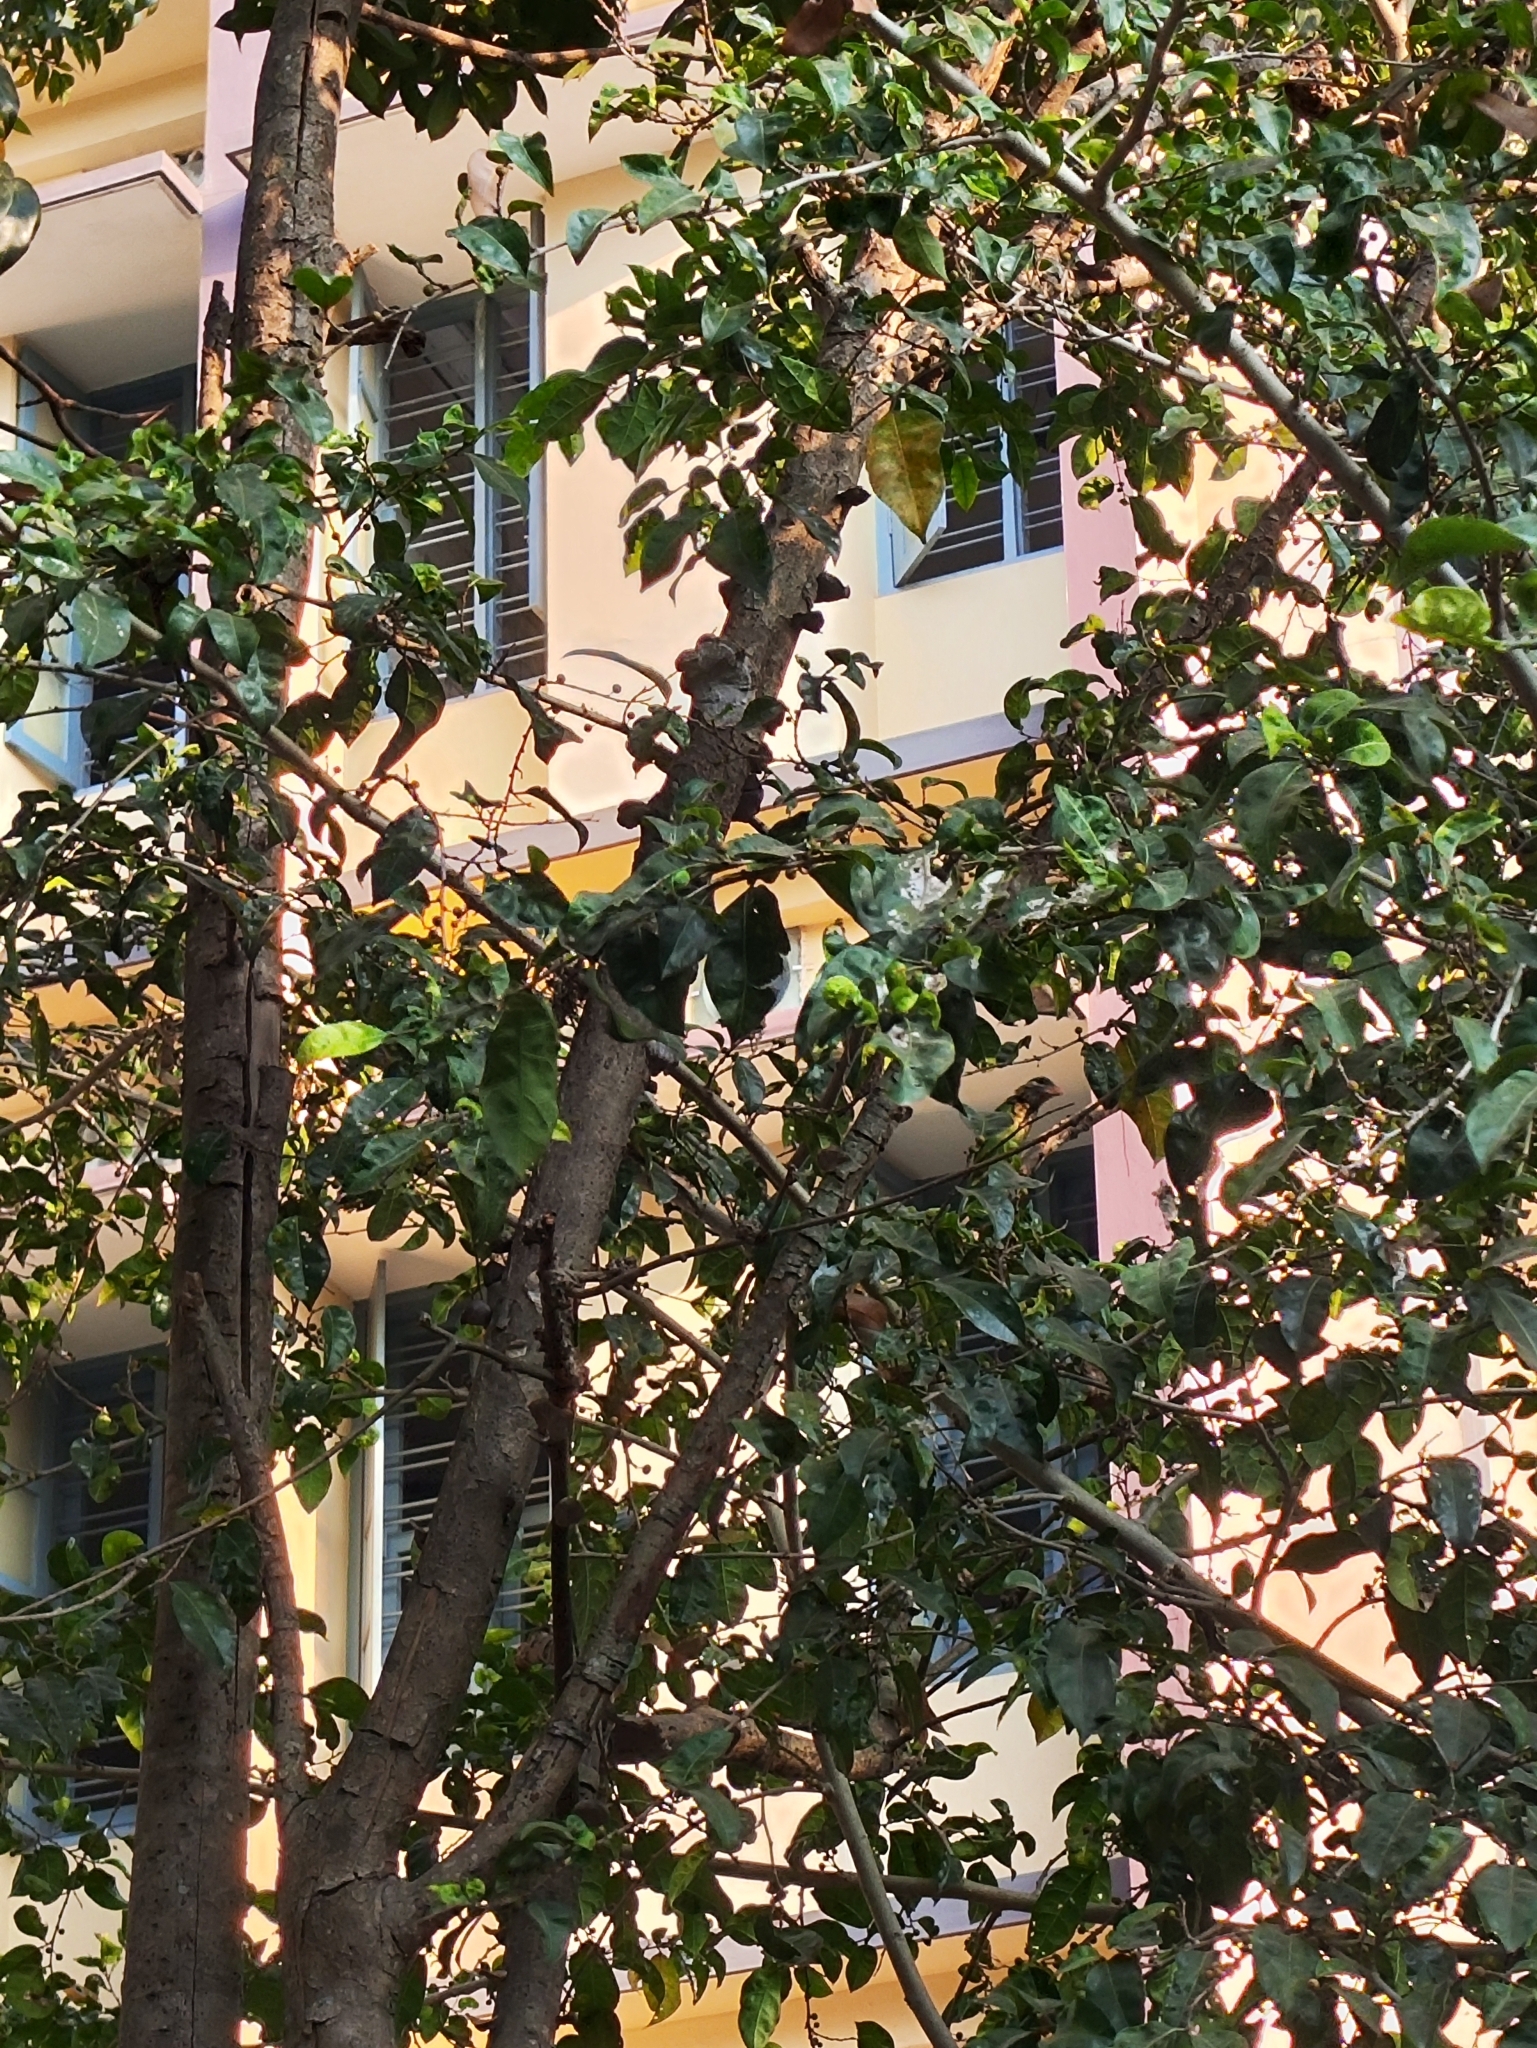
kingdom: Animalia
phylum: Chordata
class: Aves
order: Piciformes
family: Megalaimidae
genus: Psilopogon
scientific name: Psilopogon viridis
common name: White-cheeked barbet
